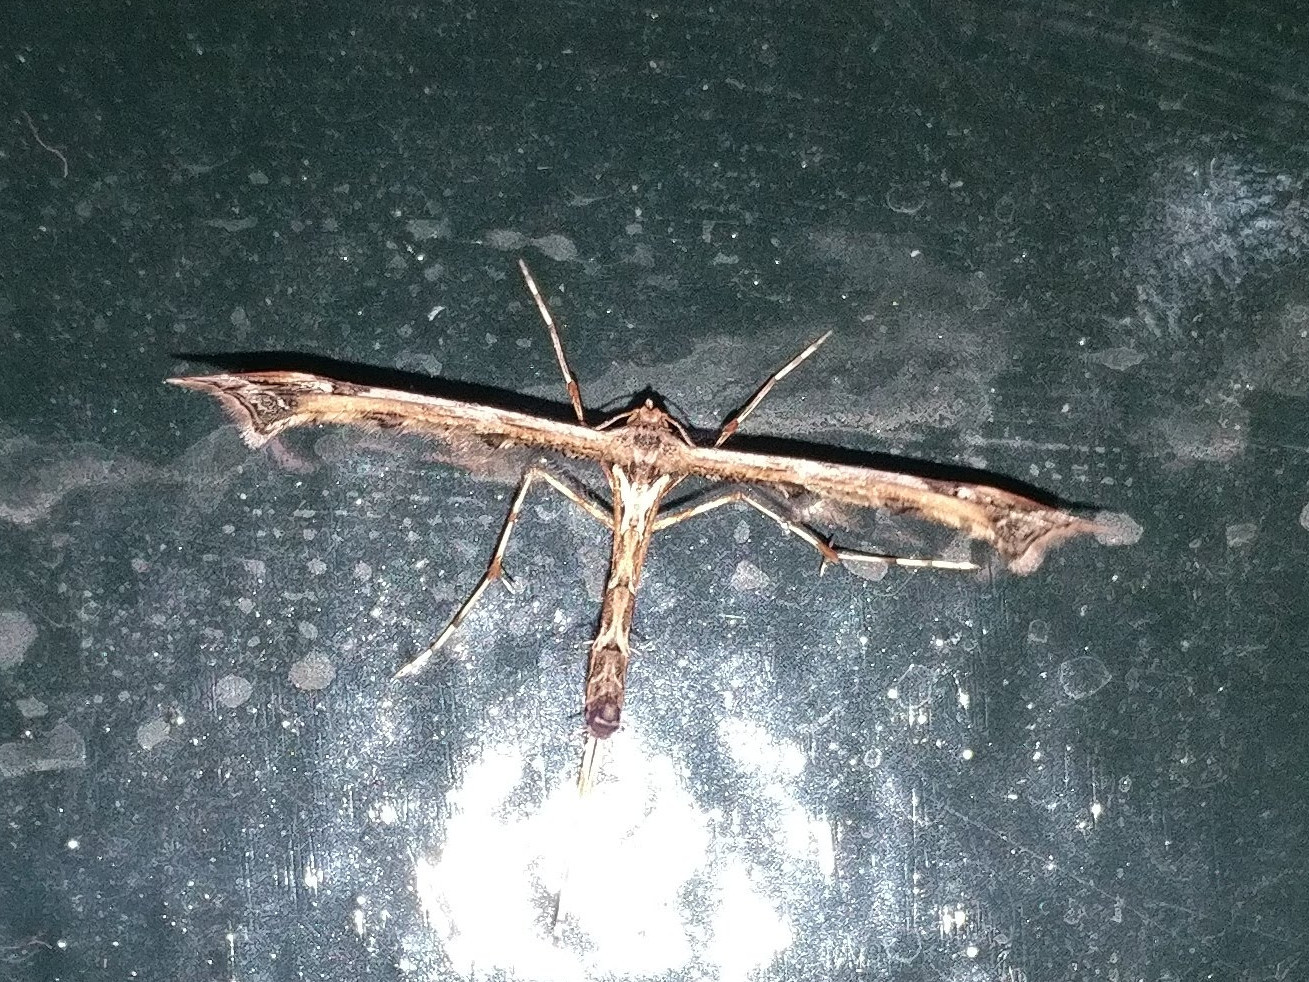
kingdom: Animalia
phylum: Arthropoda
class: Insecta
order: Lepidoptera
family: Pterophoridae
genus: Amblyptilia
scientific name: Amblyptilia acanthadactyla
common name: Beautiful plume
